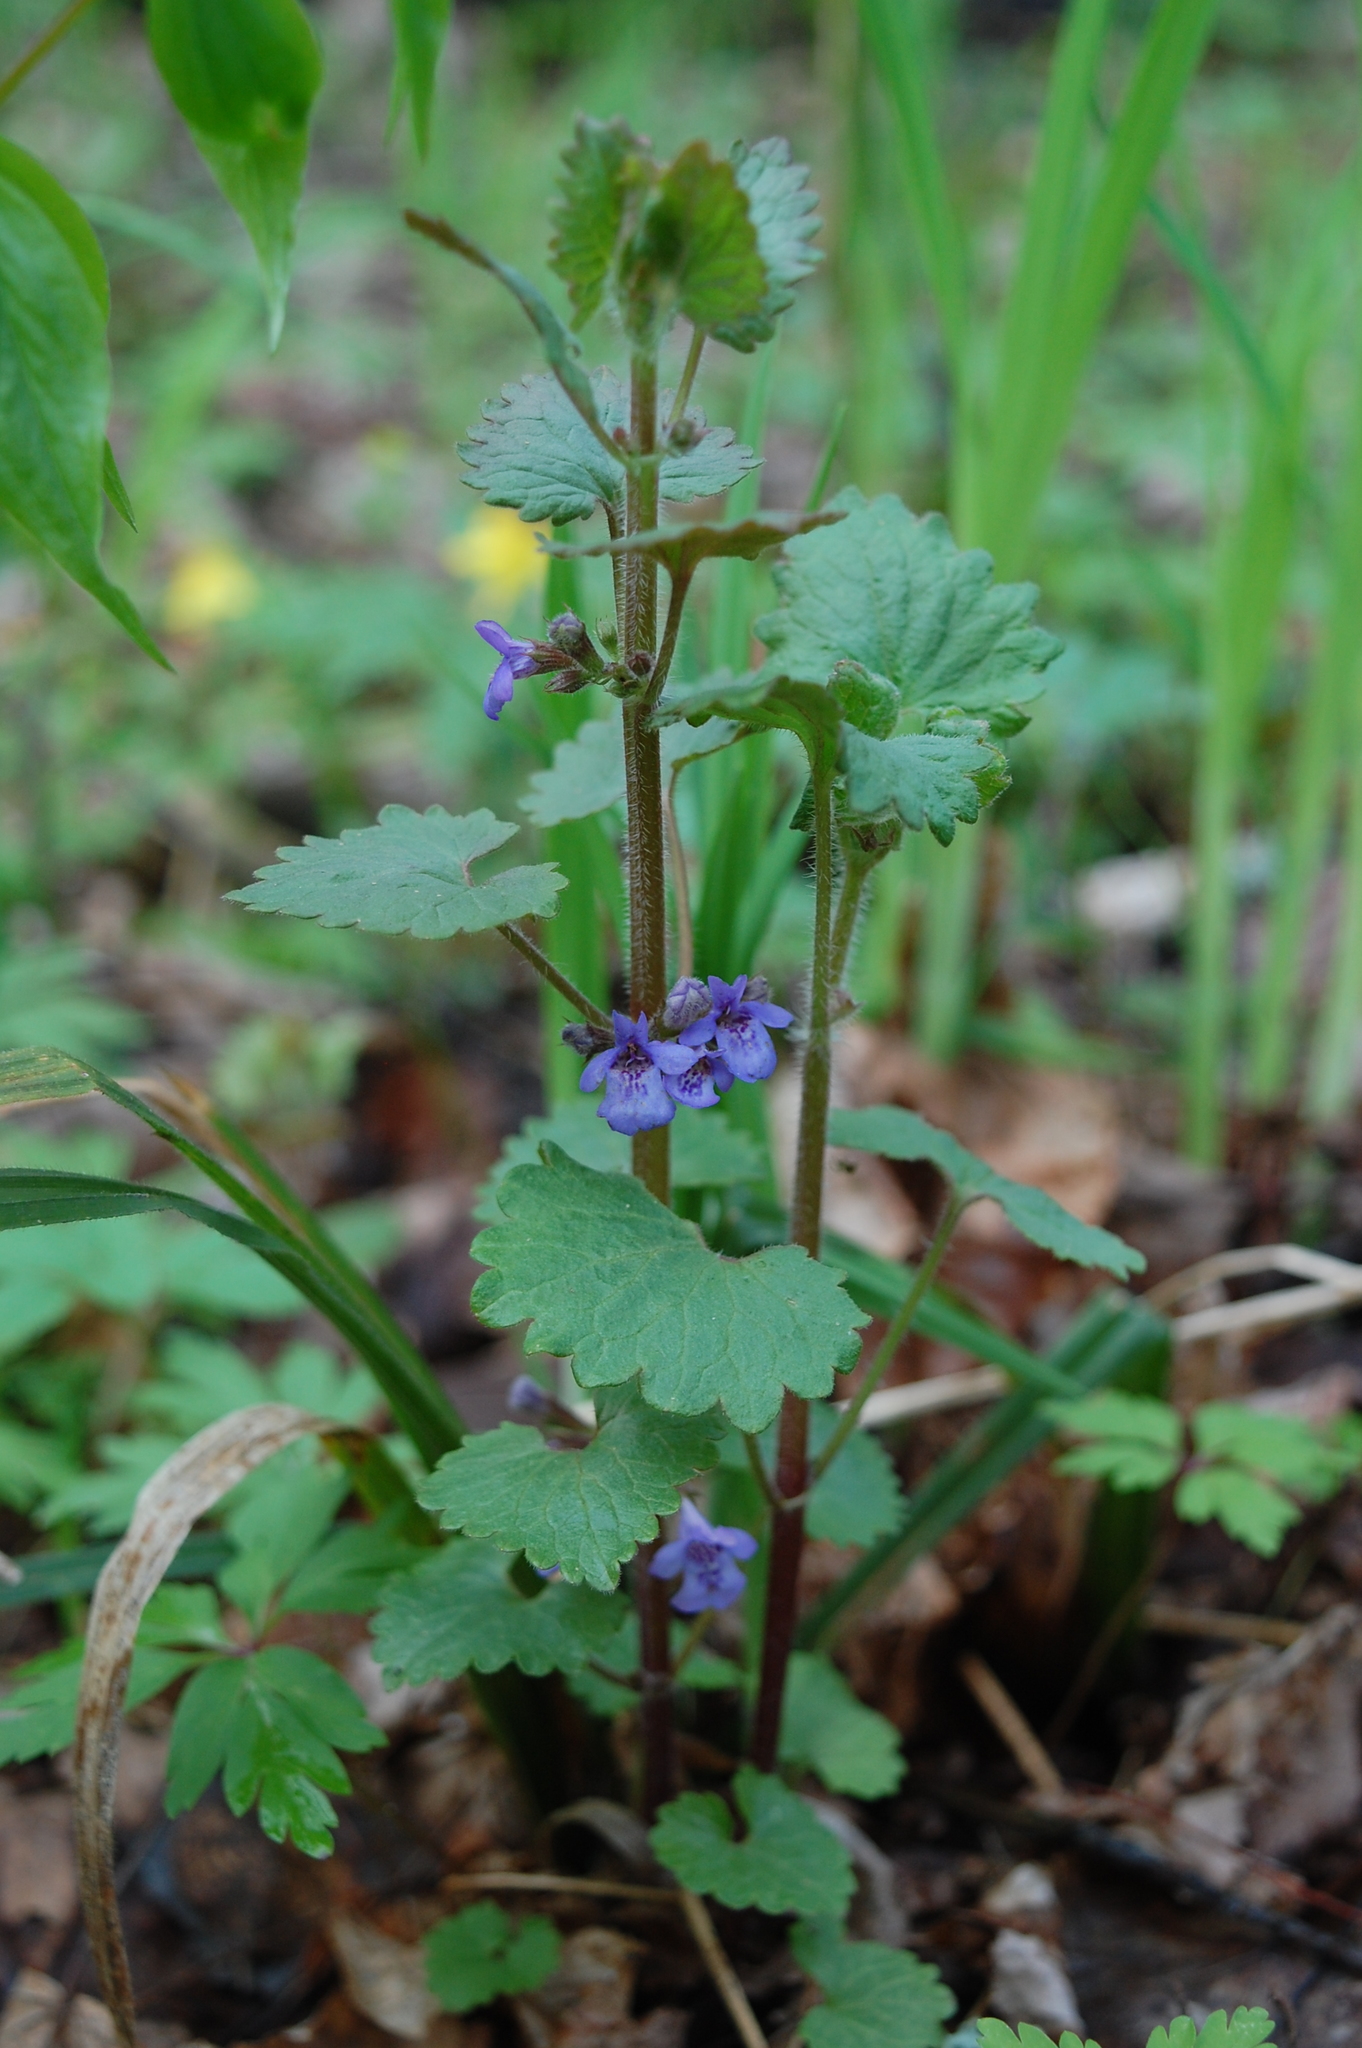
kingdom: Plantae
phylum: Tracheophyta
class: Magnoliopsida
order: Lamiales
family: Lamiaceae
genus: Glechoma
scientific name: Glechoma hederacea
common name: Ground ivy
